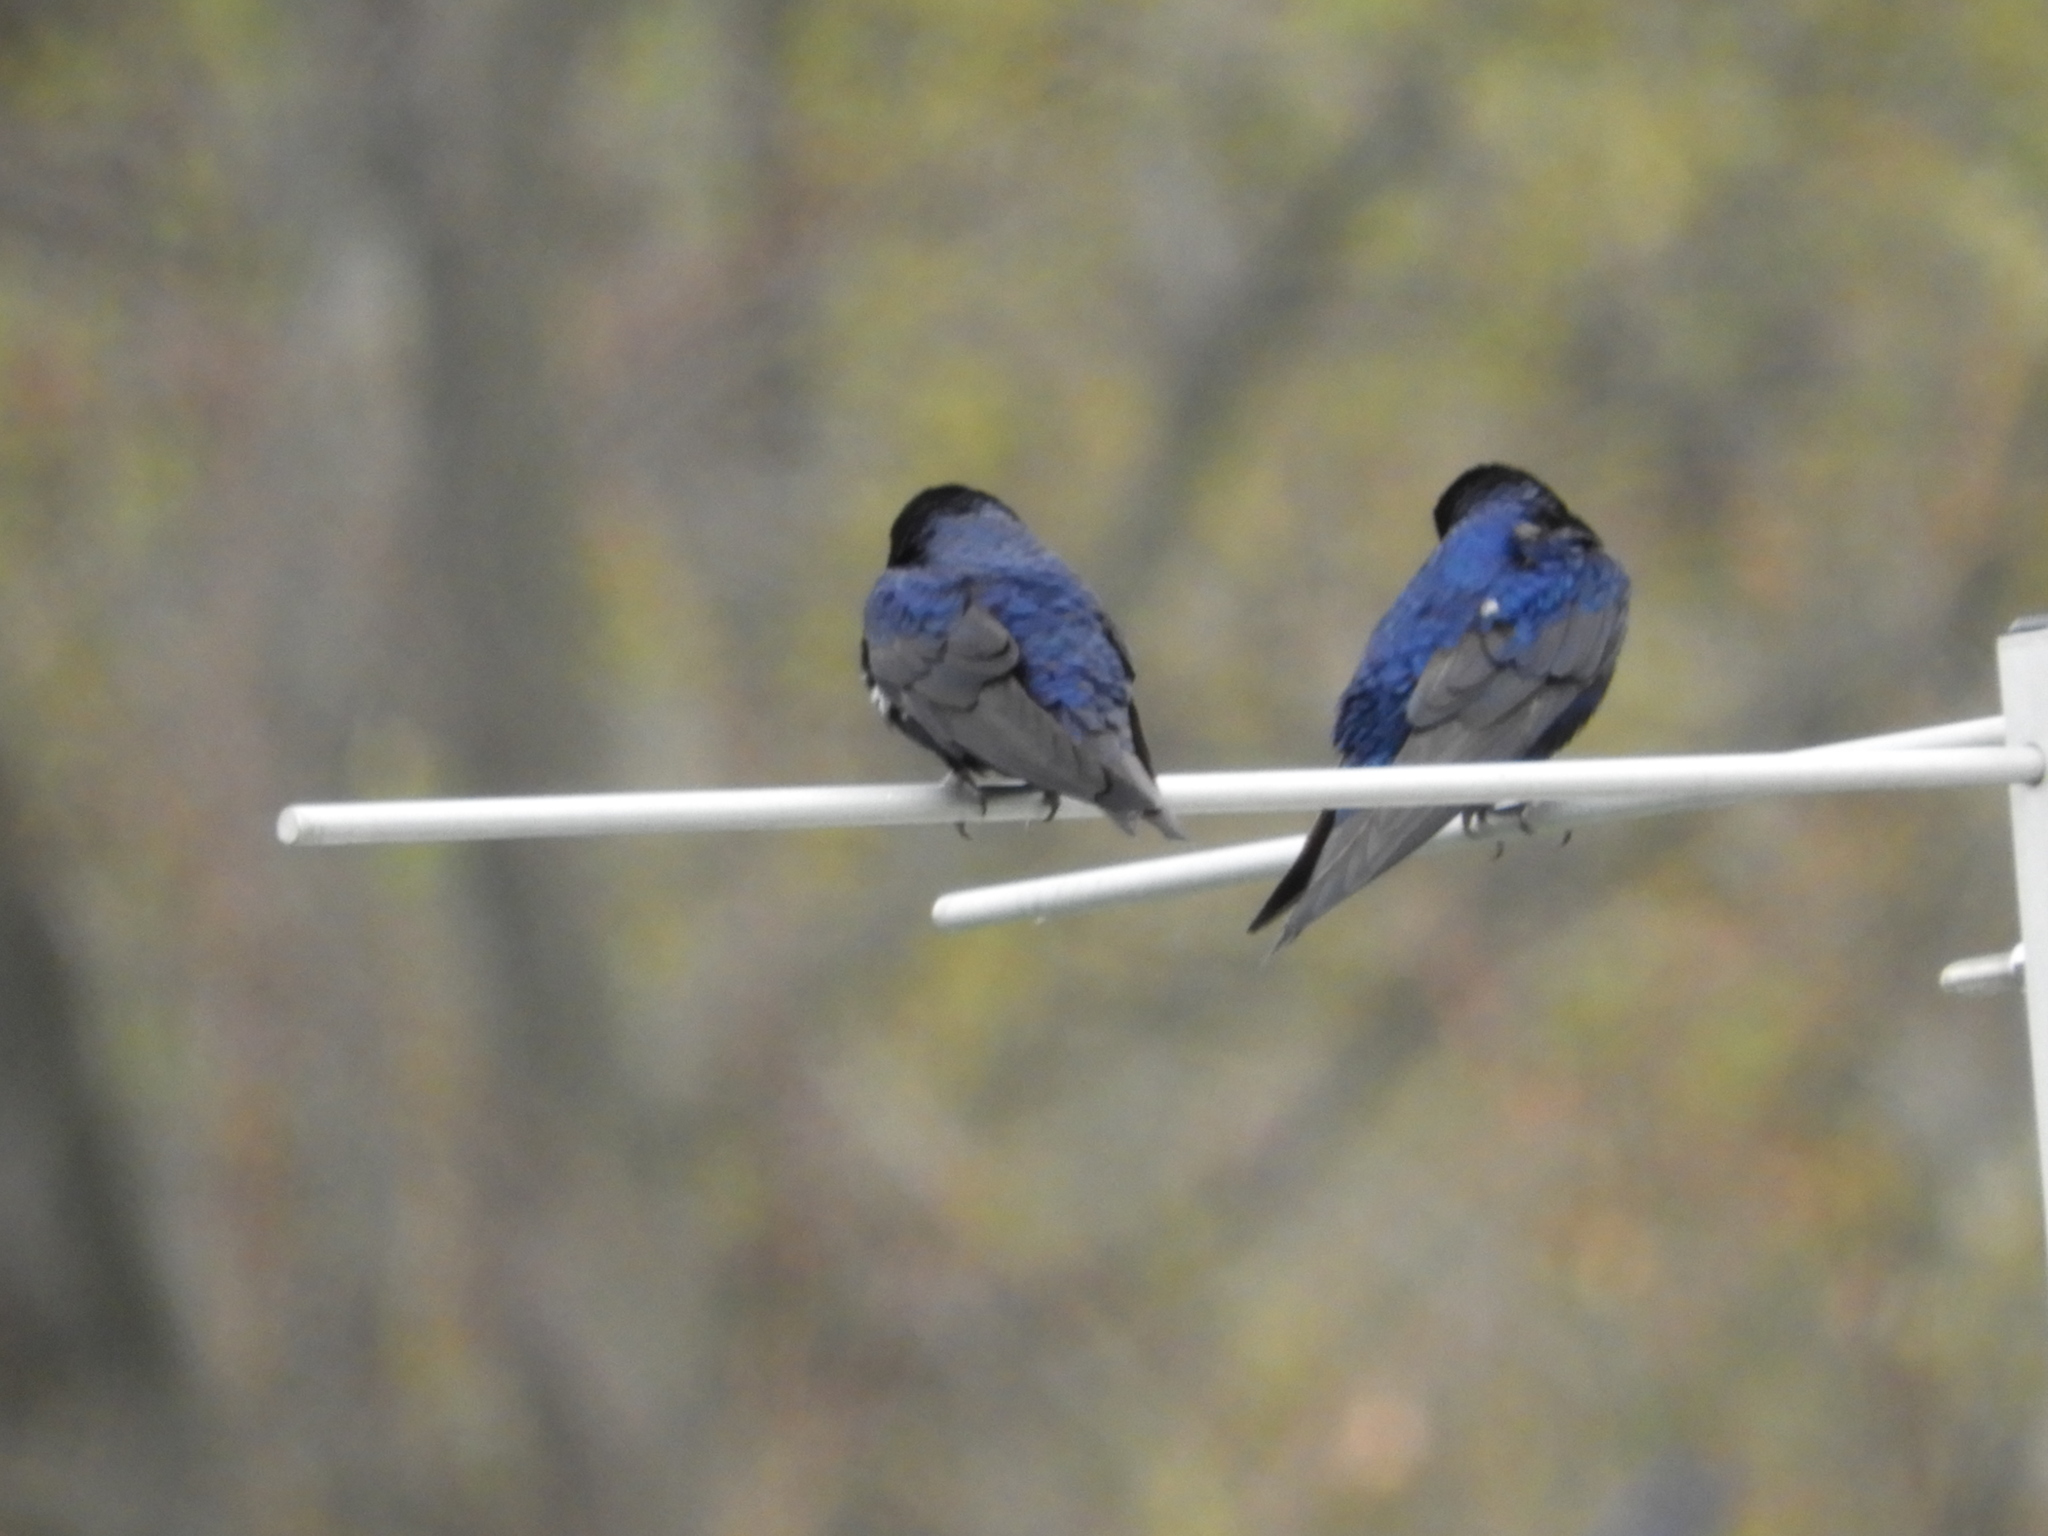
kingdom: Animalia
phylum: Chordata
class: Aves
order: Passeriformes
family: Hirundinidae
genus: Progne
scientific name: Progne subis
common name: Purple martin
